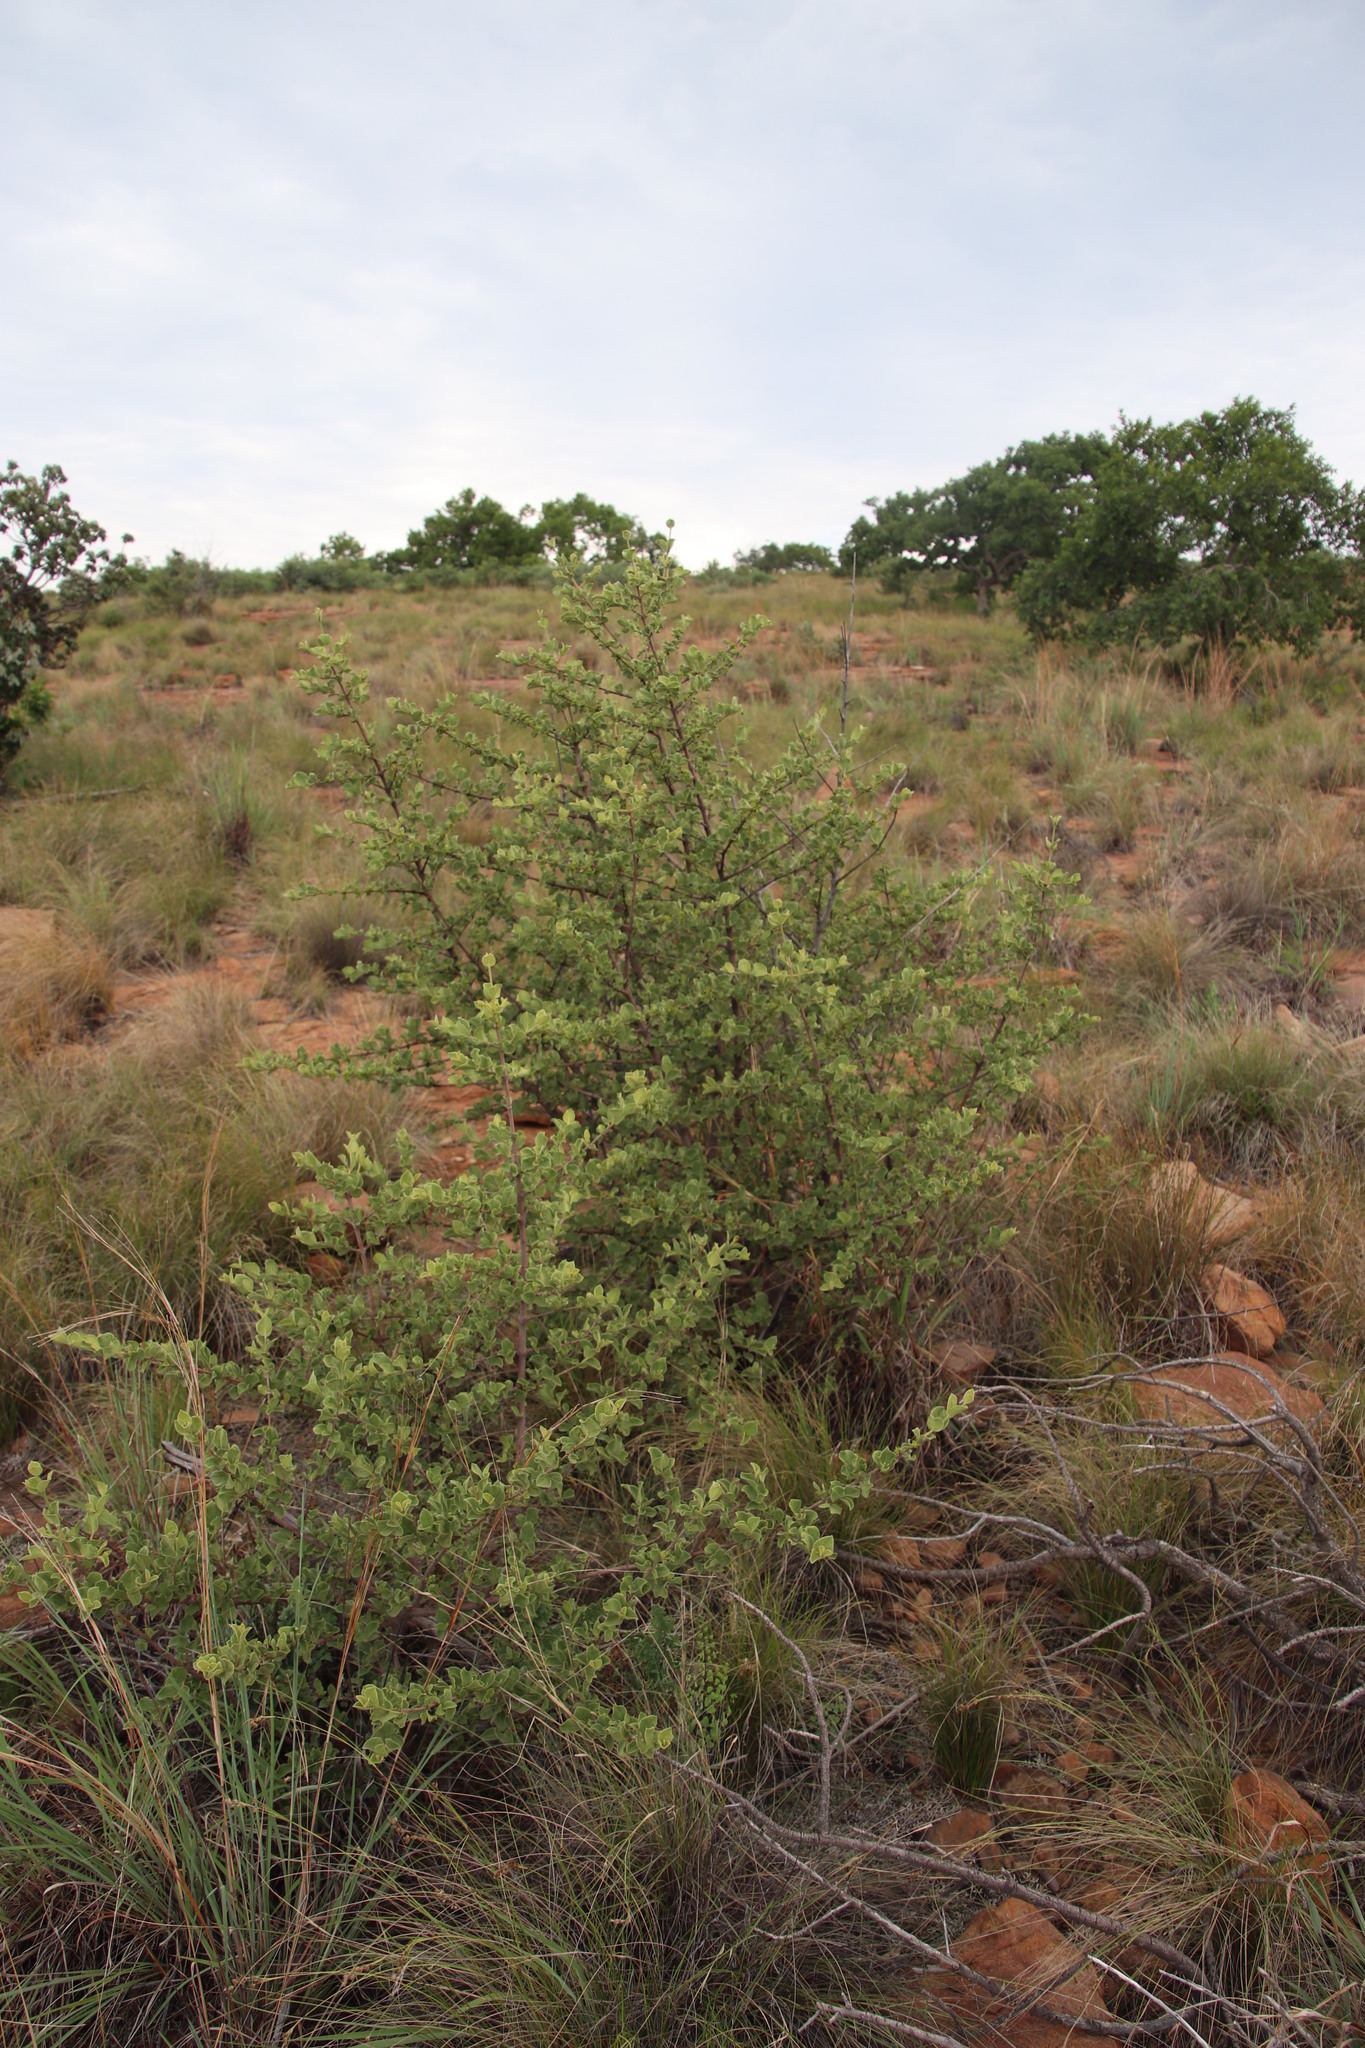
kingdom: Plantae
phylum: Tracheophyta
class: Magnoliopsida
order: Gentianales
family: Rubiaceae
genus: Vangueria
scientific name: Vangueria parvifolia
